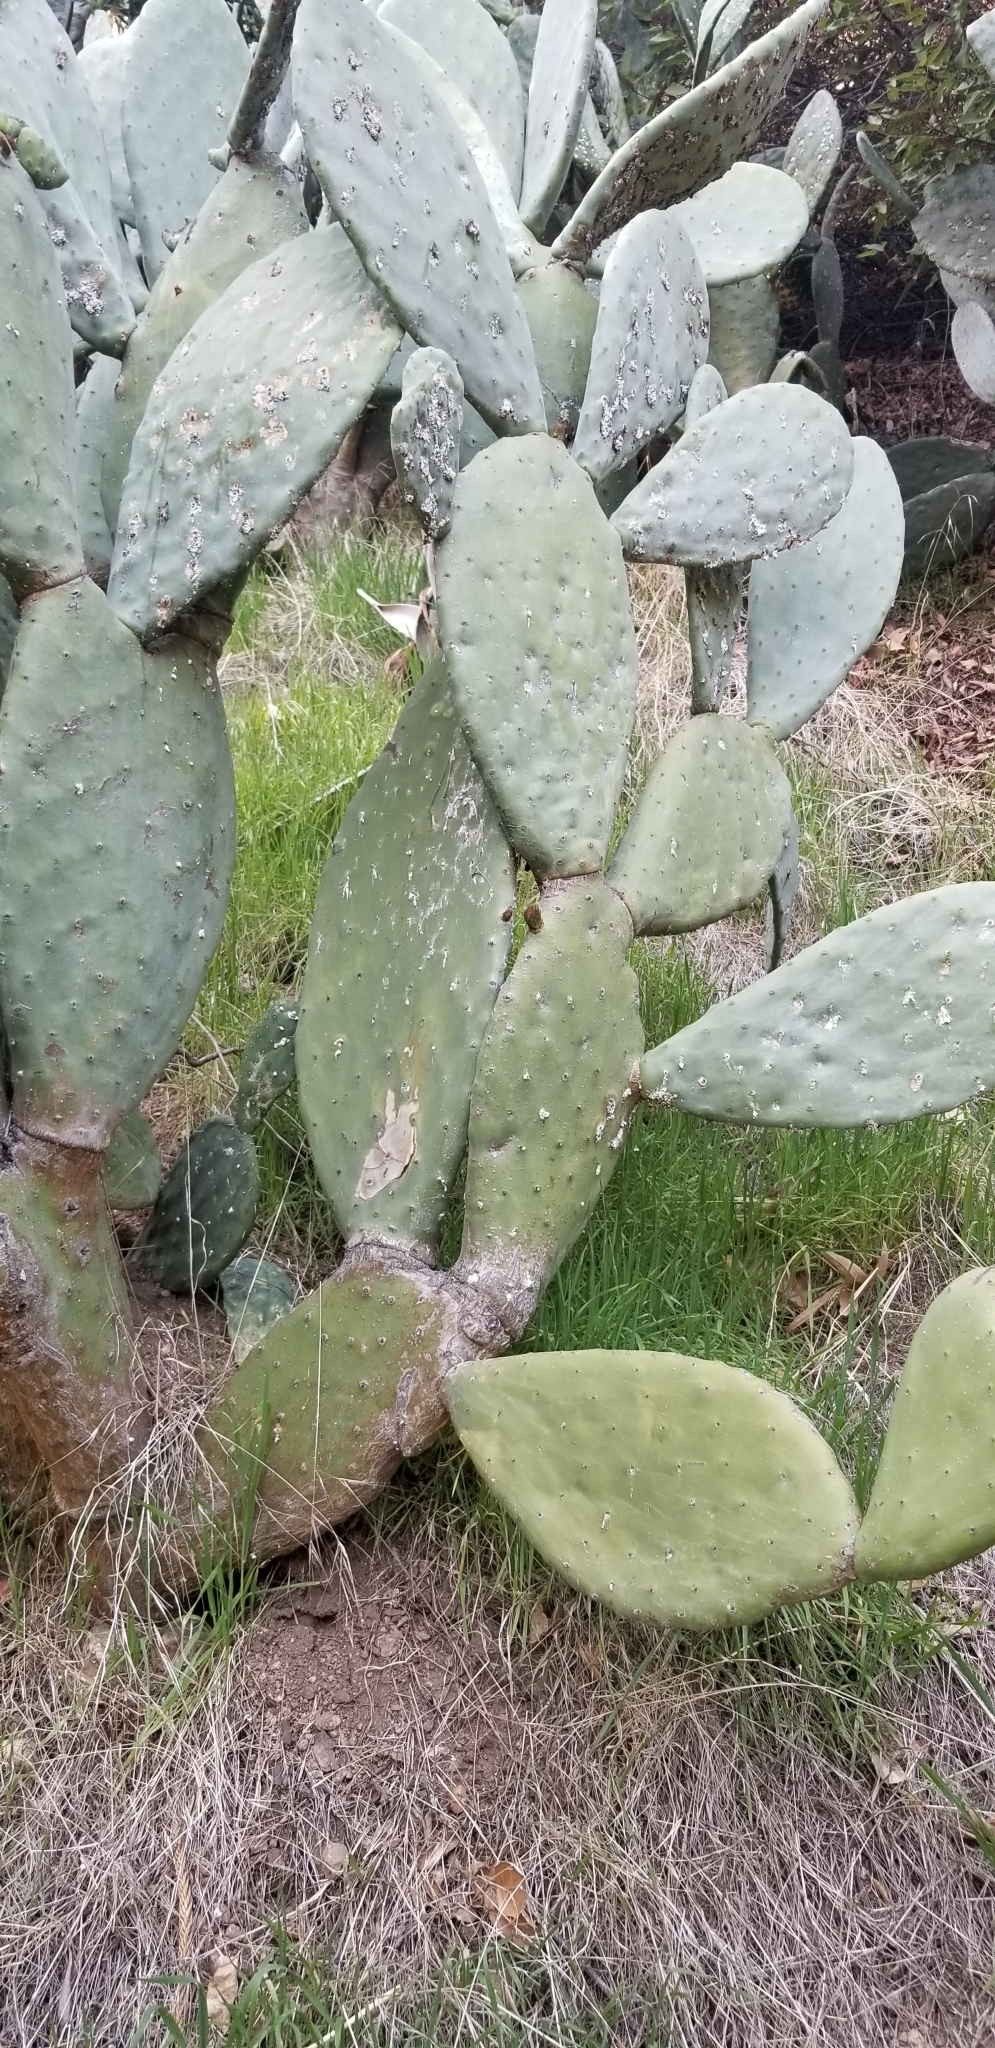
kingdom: Plantae
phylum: Tracheophyta
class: Magnoliopsida
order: Caryophyllales
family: Cactaceae
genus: Opuntia
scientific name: Opuntia ficus-indica
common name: Barbary fig
